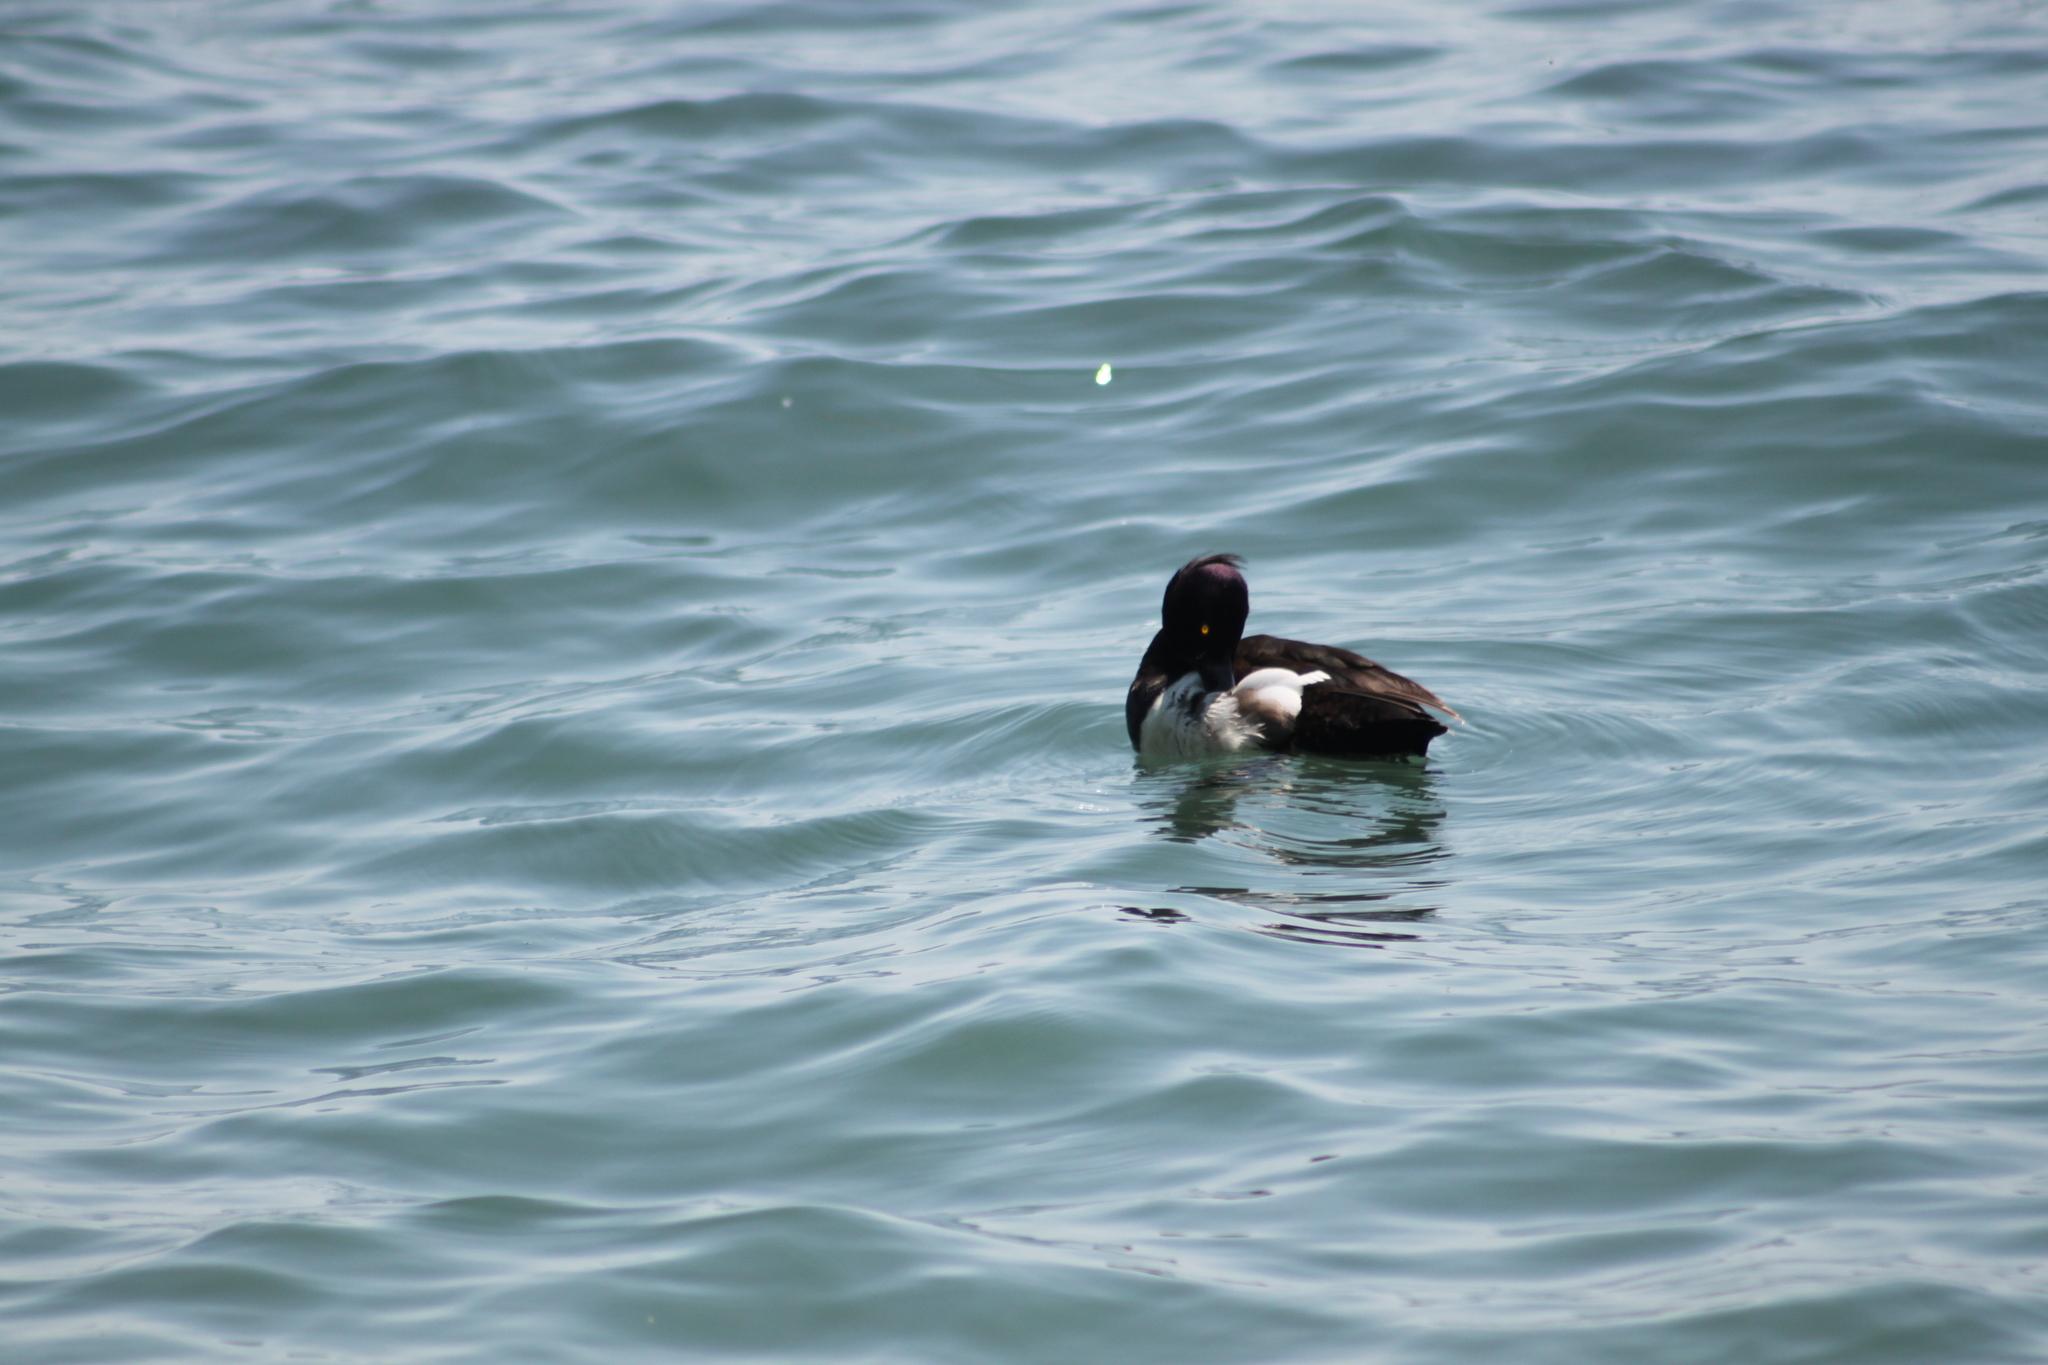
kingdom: Animalia
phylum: Chordata
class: Aves
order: Anseriformes
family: Anatidae
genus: Aythya
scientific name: Aythya fuligula
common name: Tufted duck
